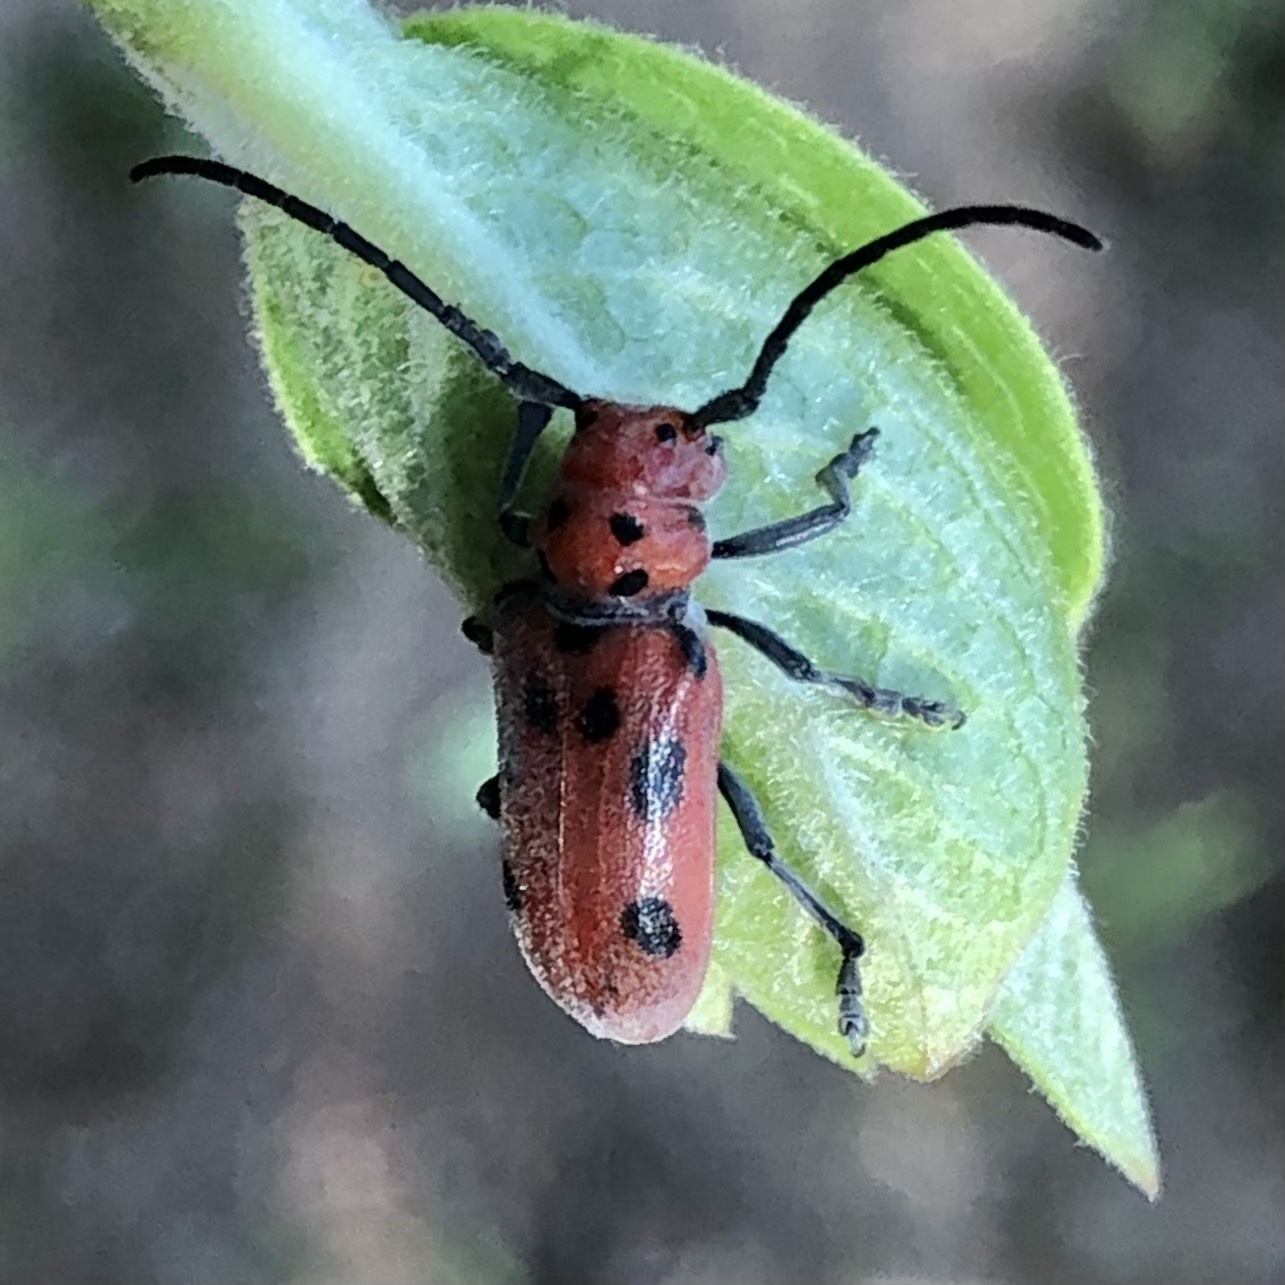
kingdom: Animalia
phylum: Arthropoda
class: Insecta
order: Coleoptera
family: Cerambycidae
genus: Tetraopes
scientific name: Tetraopes tetrophthalmus
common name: Red milkweed beetle
